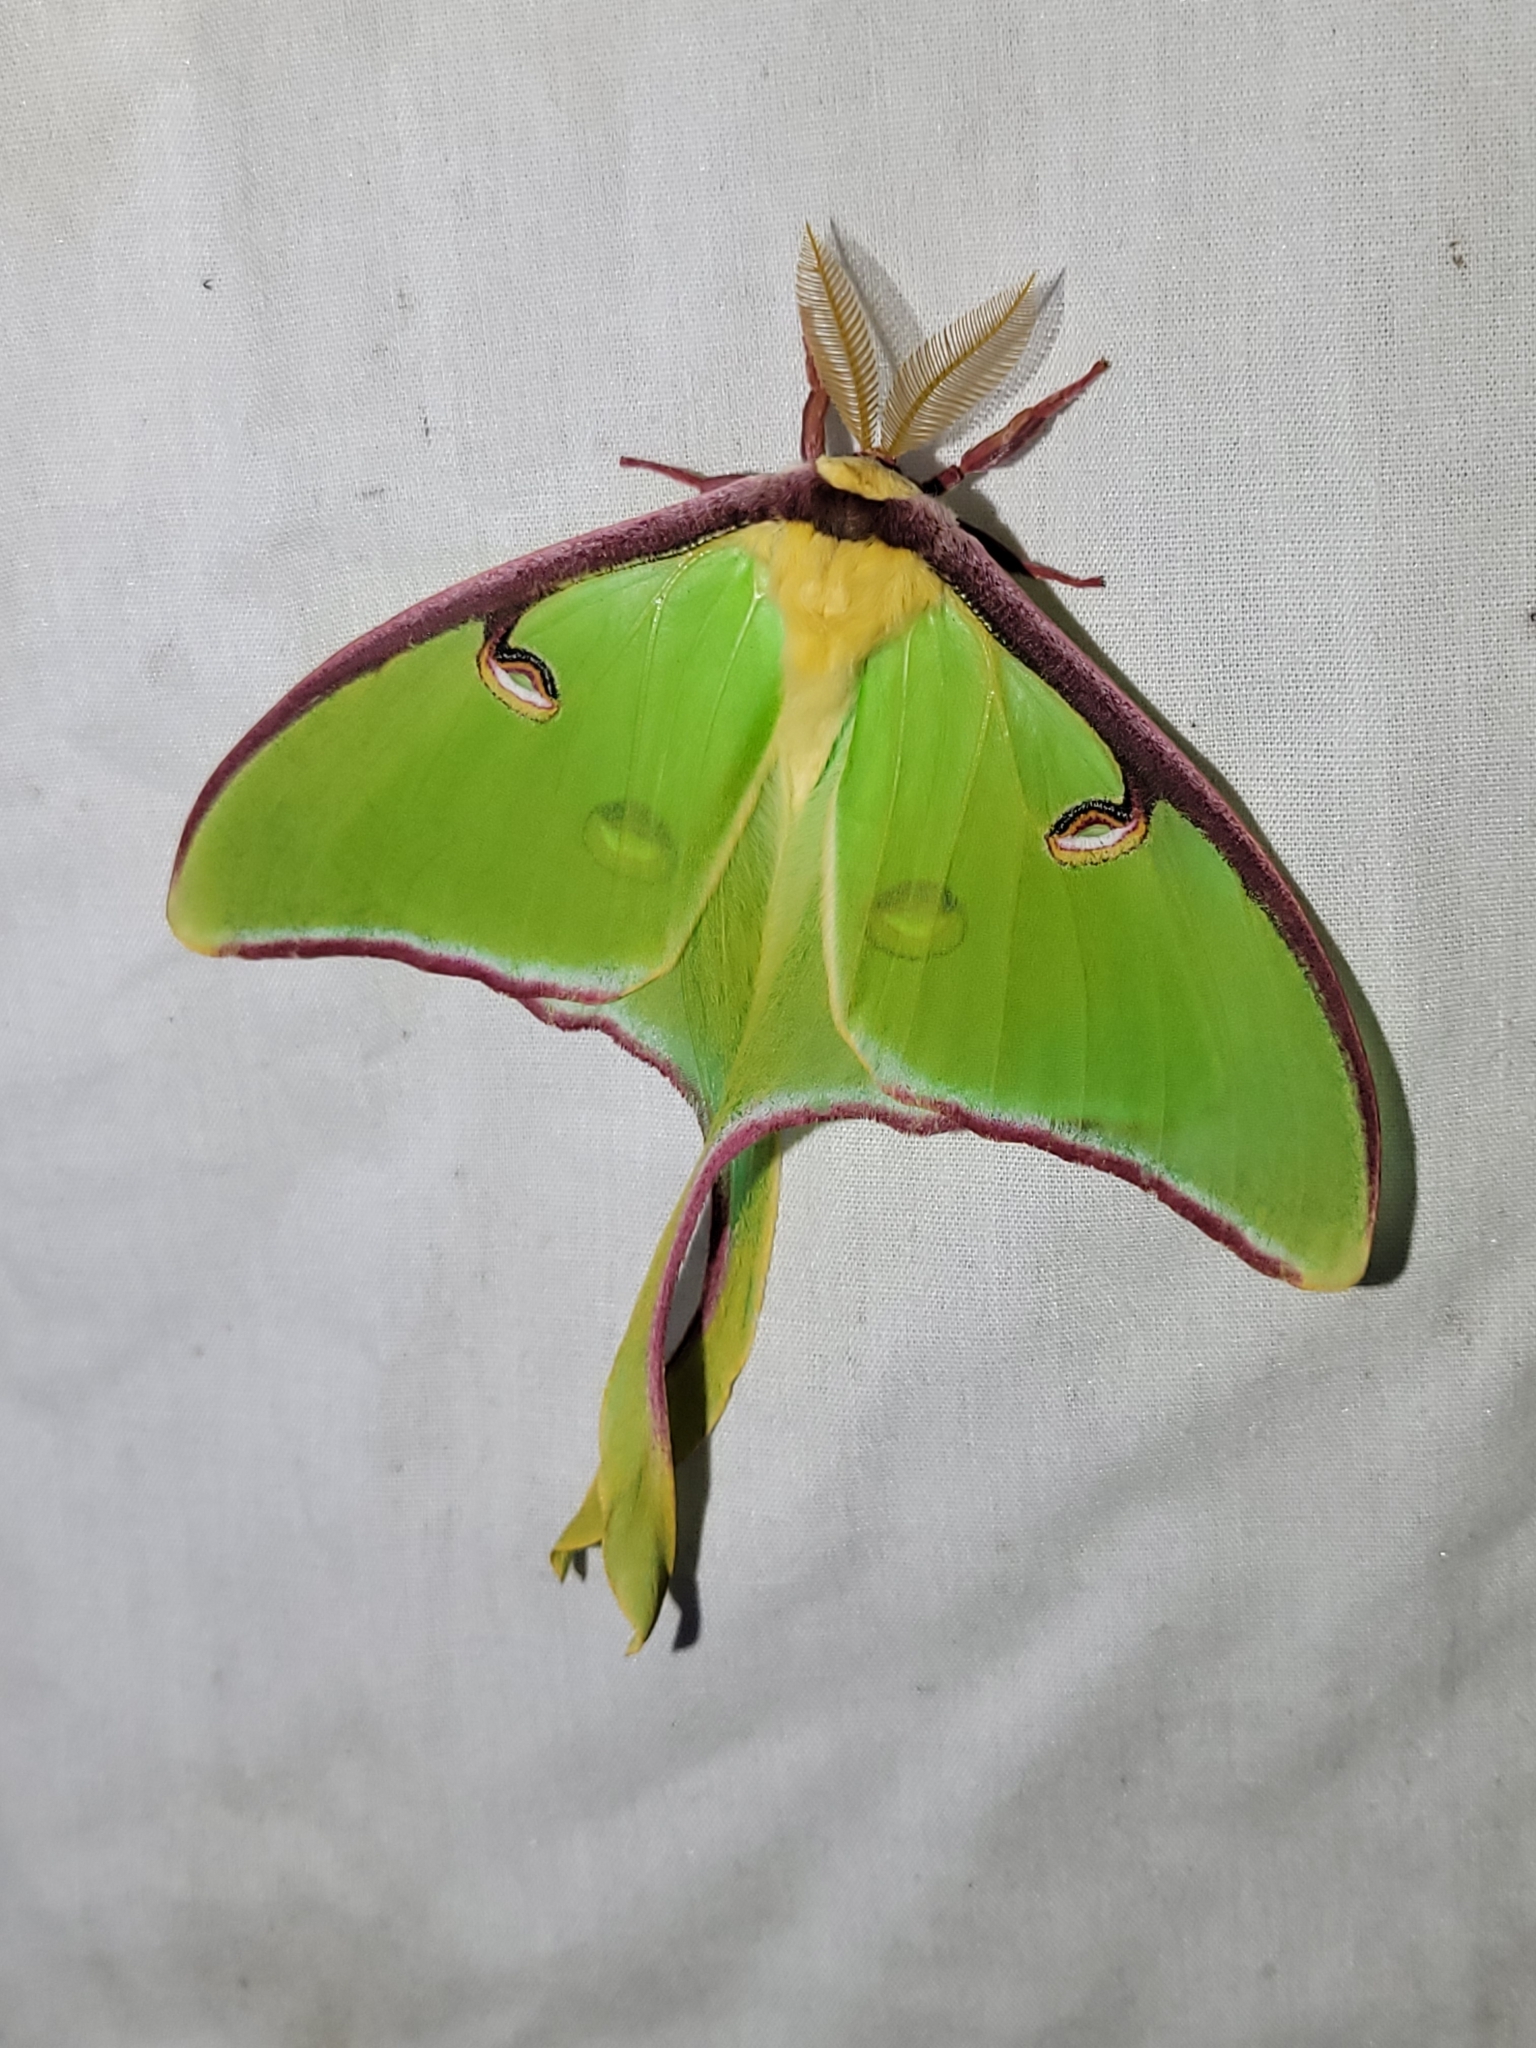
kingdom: Animalia
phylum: Arthropoda
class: Insecta
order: Lepidoptera
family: Saturniidae
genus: Actias
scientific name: Actias luna
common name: Luna moth
